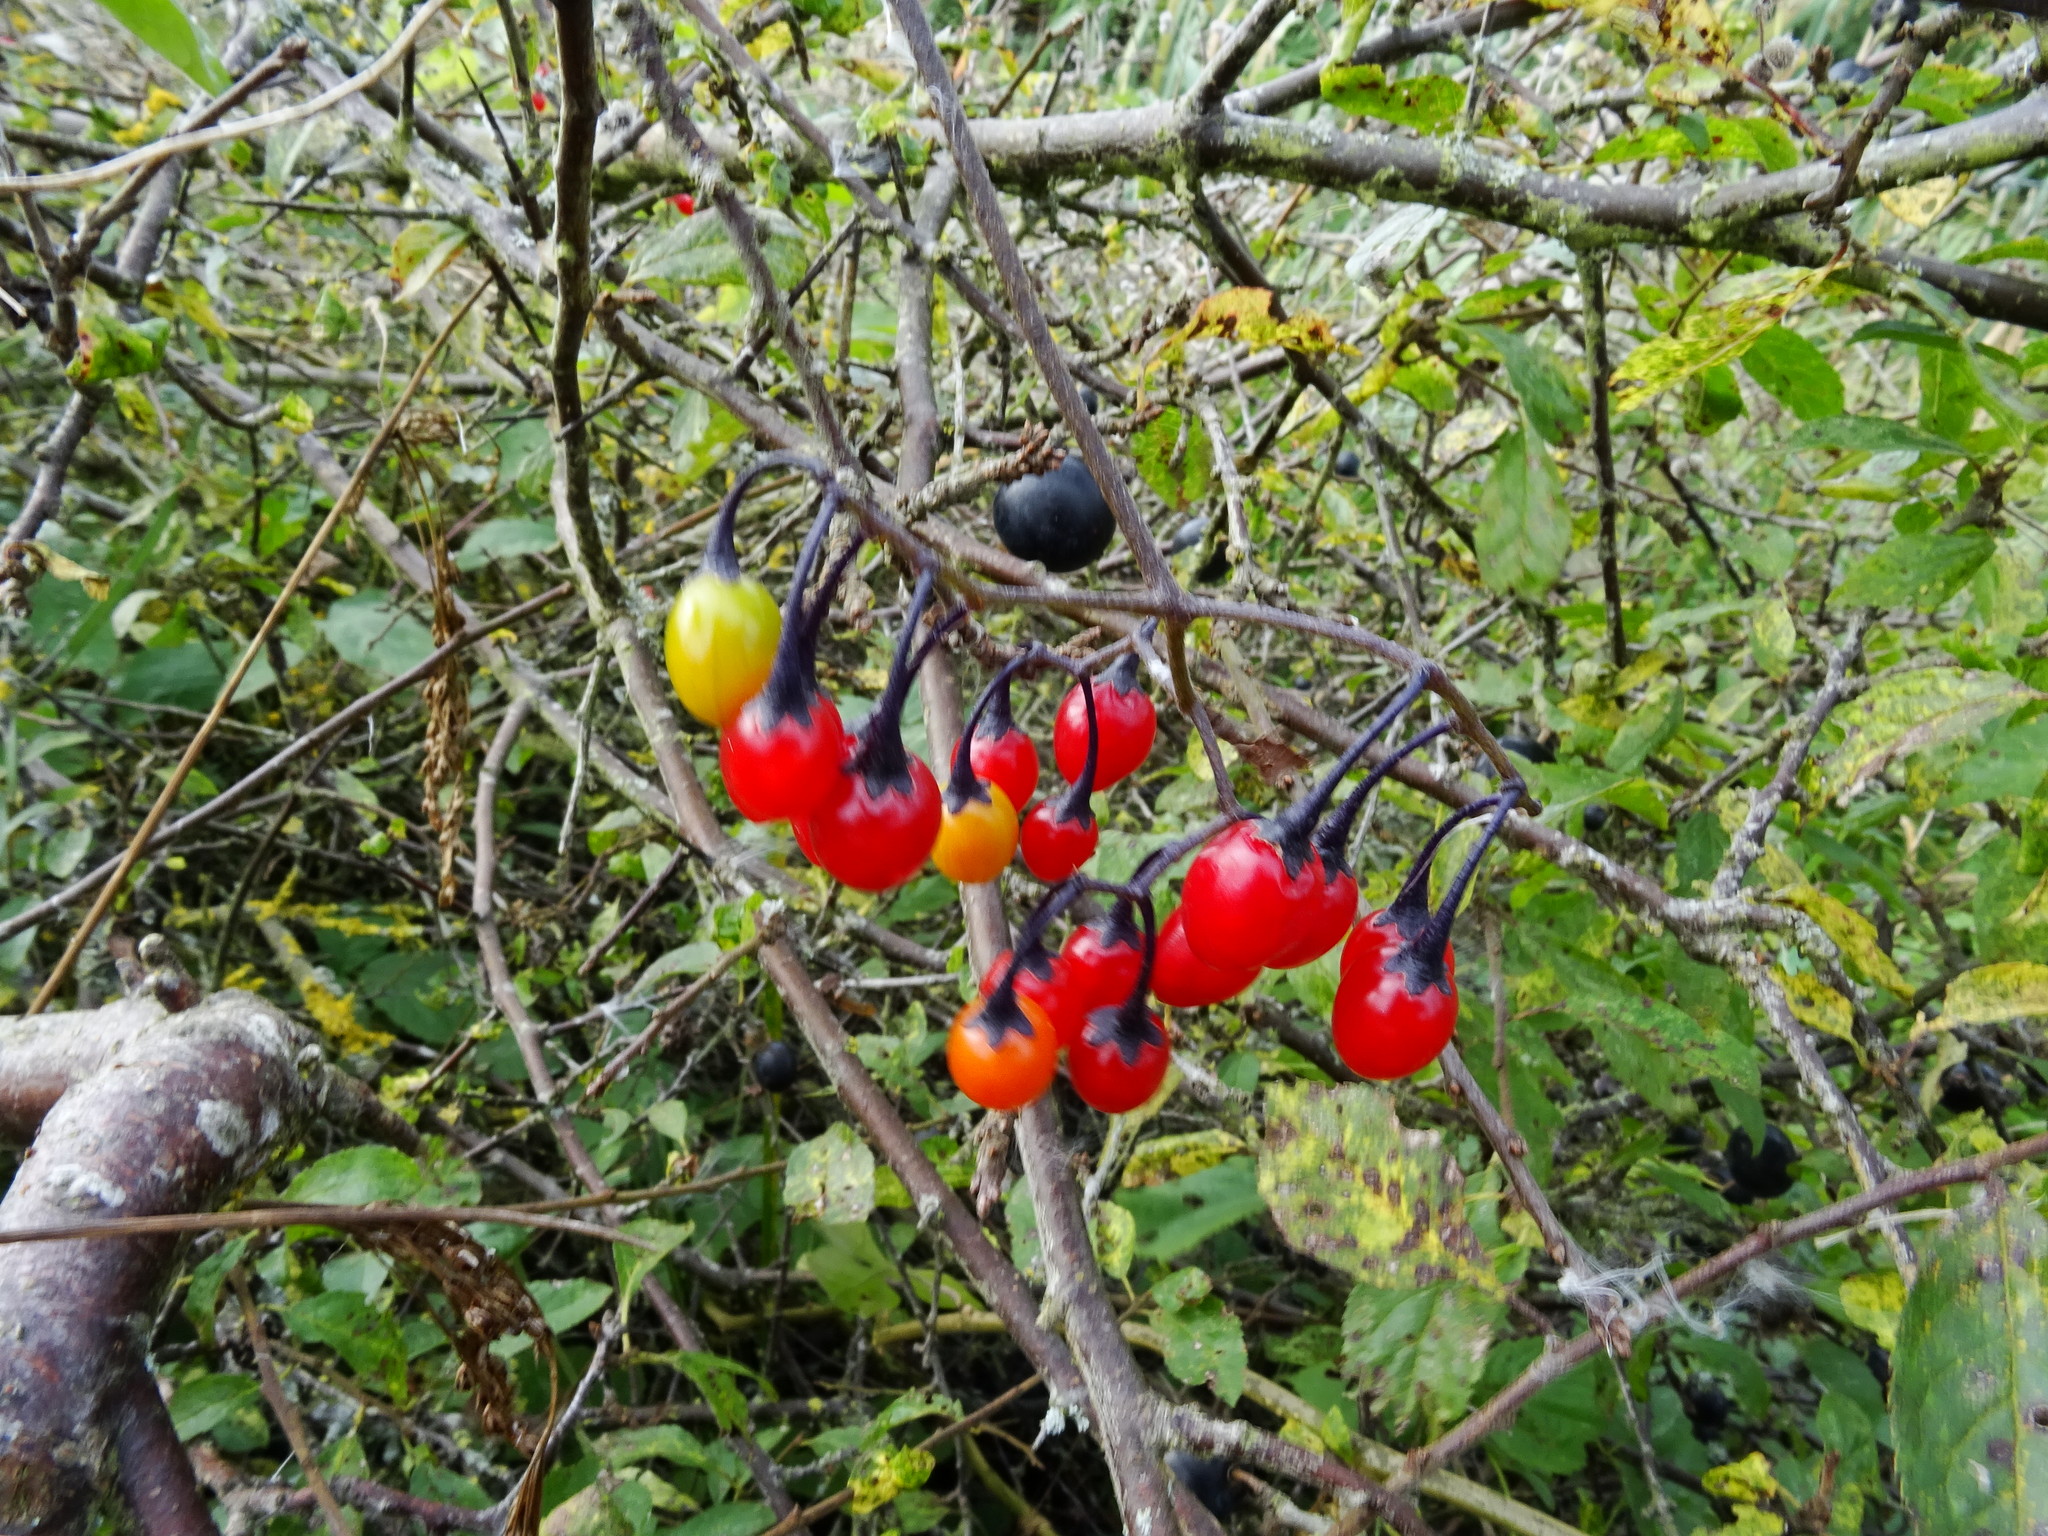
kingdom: Plantae
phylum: Tracheophyta
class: Magnoliopsida
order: Solanales
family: Solanaceae
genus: Solanum
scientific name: Solanum dulcamara
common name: Climbing nightshade
